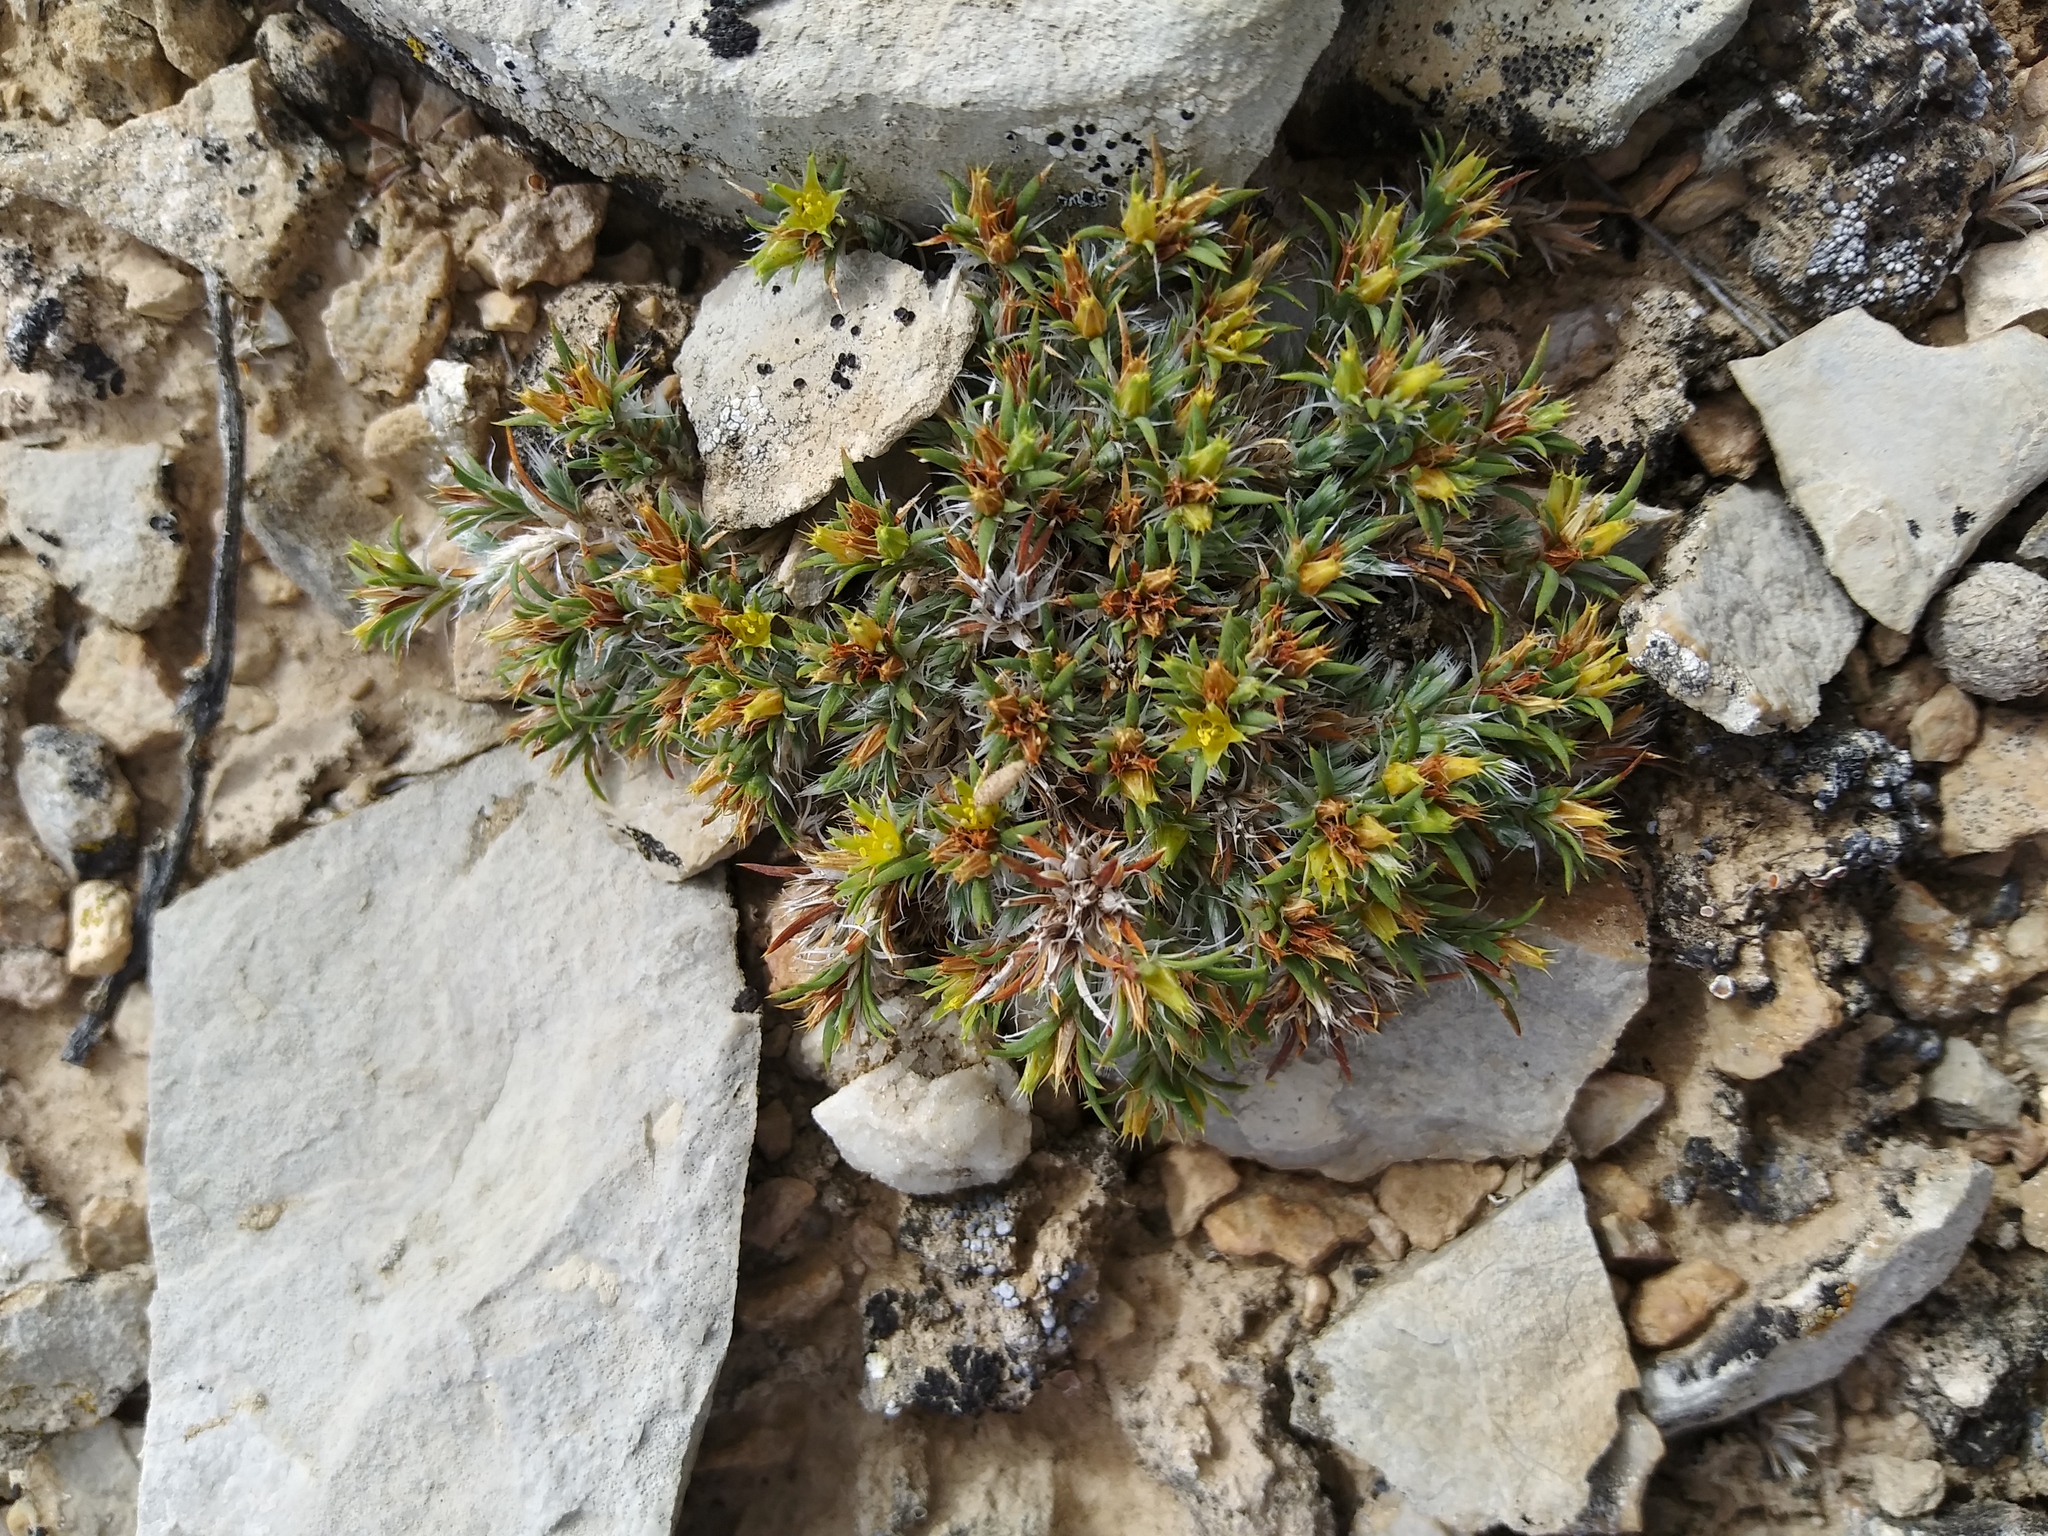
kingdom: Plantae
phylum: Tracheophyta
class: Magnoliopsida
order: Caryophyllales
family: Caryophyllaceae
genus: Paronychia
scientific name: Paronychia sessiliflora
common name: Creeping nailwort
